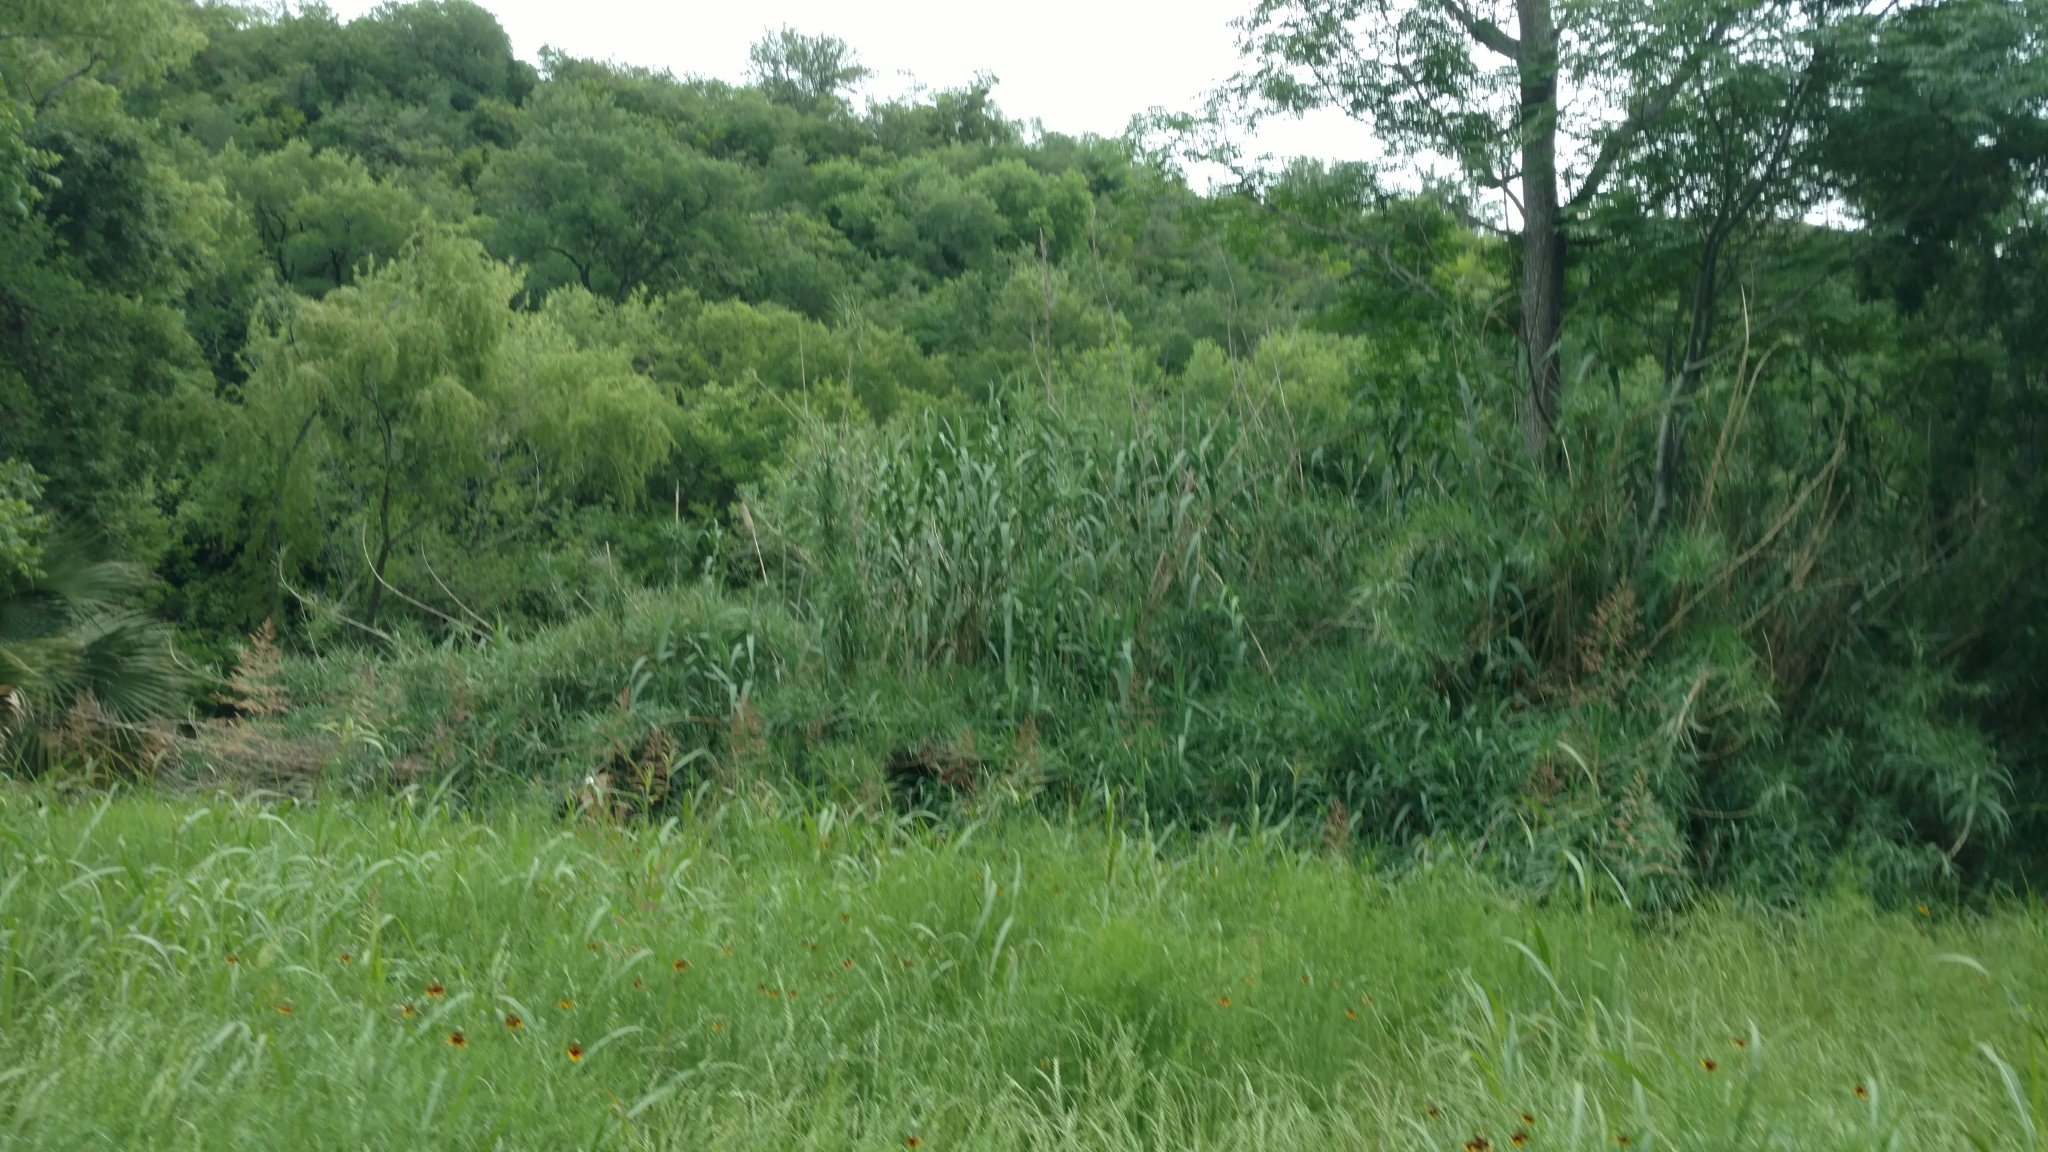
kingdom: Plantae
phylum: Tracheophyta
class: Liliopsida
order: Poales
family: Poaceae
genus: Arundo
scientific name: Arundo donax
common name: Giant reed
